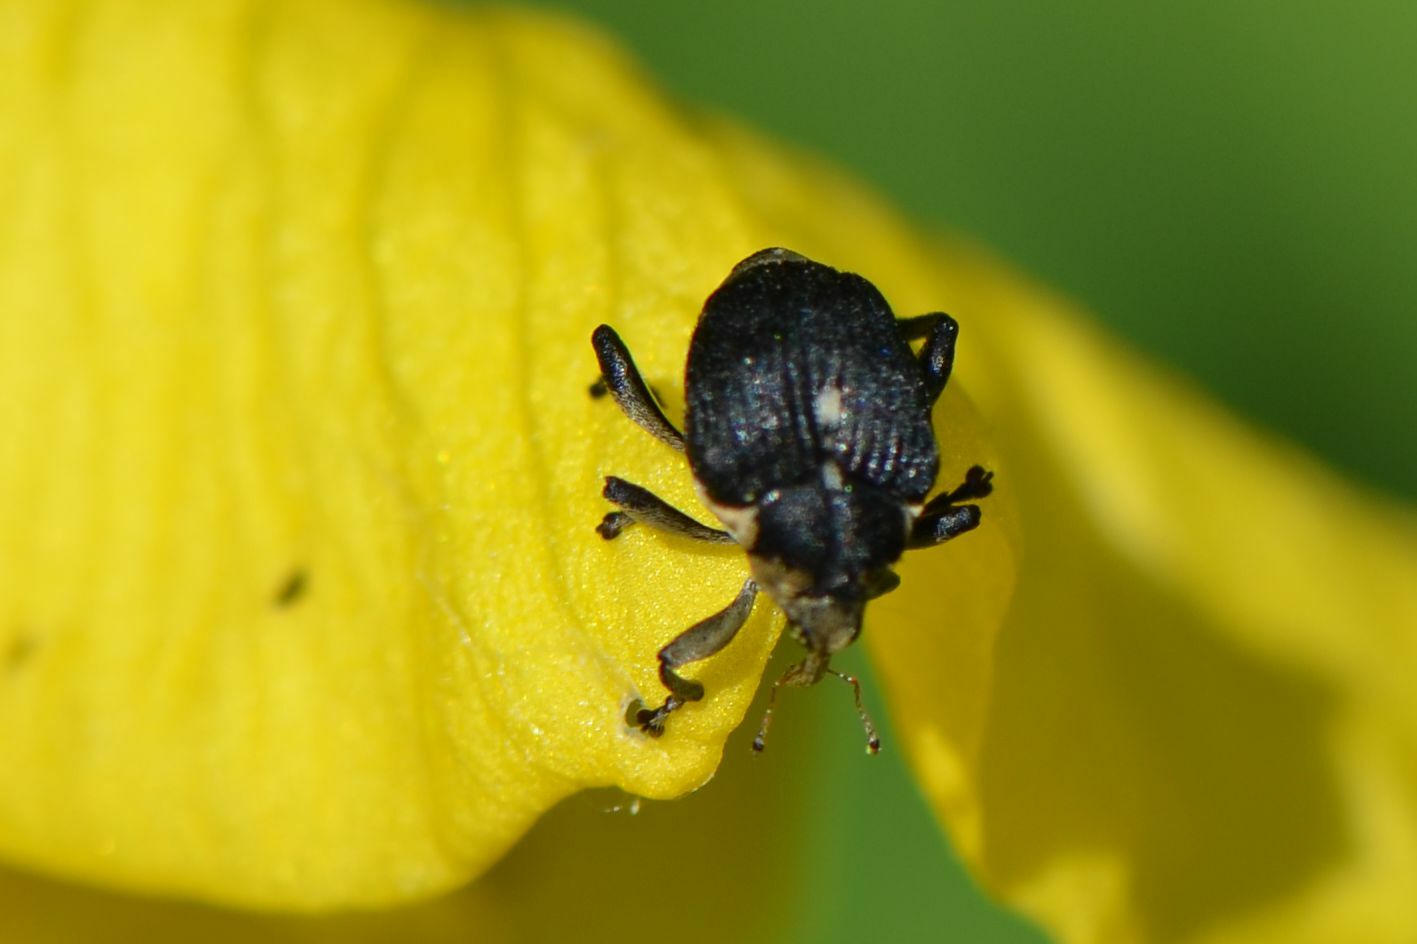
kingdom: Animalia
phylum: Arthropoda
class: Insecta
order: Coleoptera
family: Curculionidae
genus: Mononychus
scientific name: Mononychus punctumalbum
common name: Iris weevil
